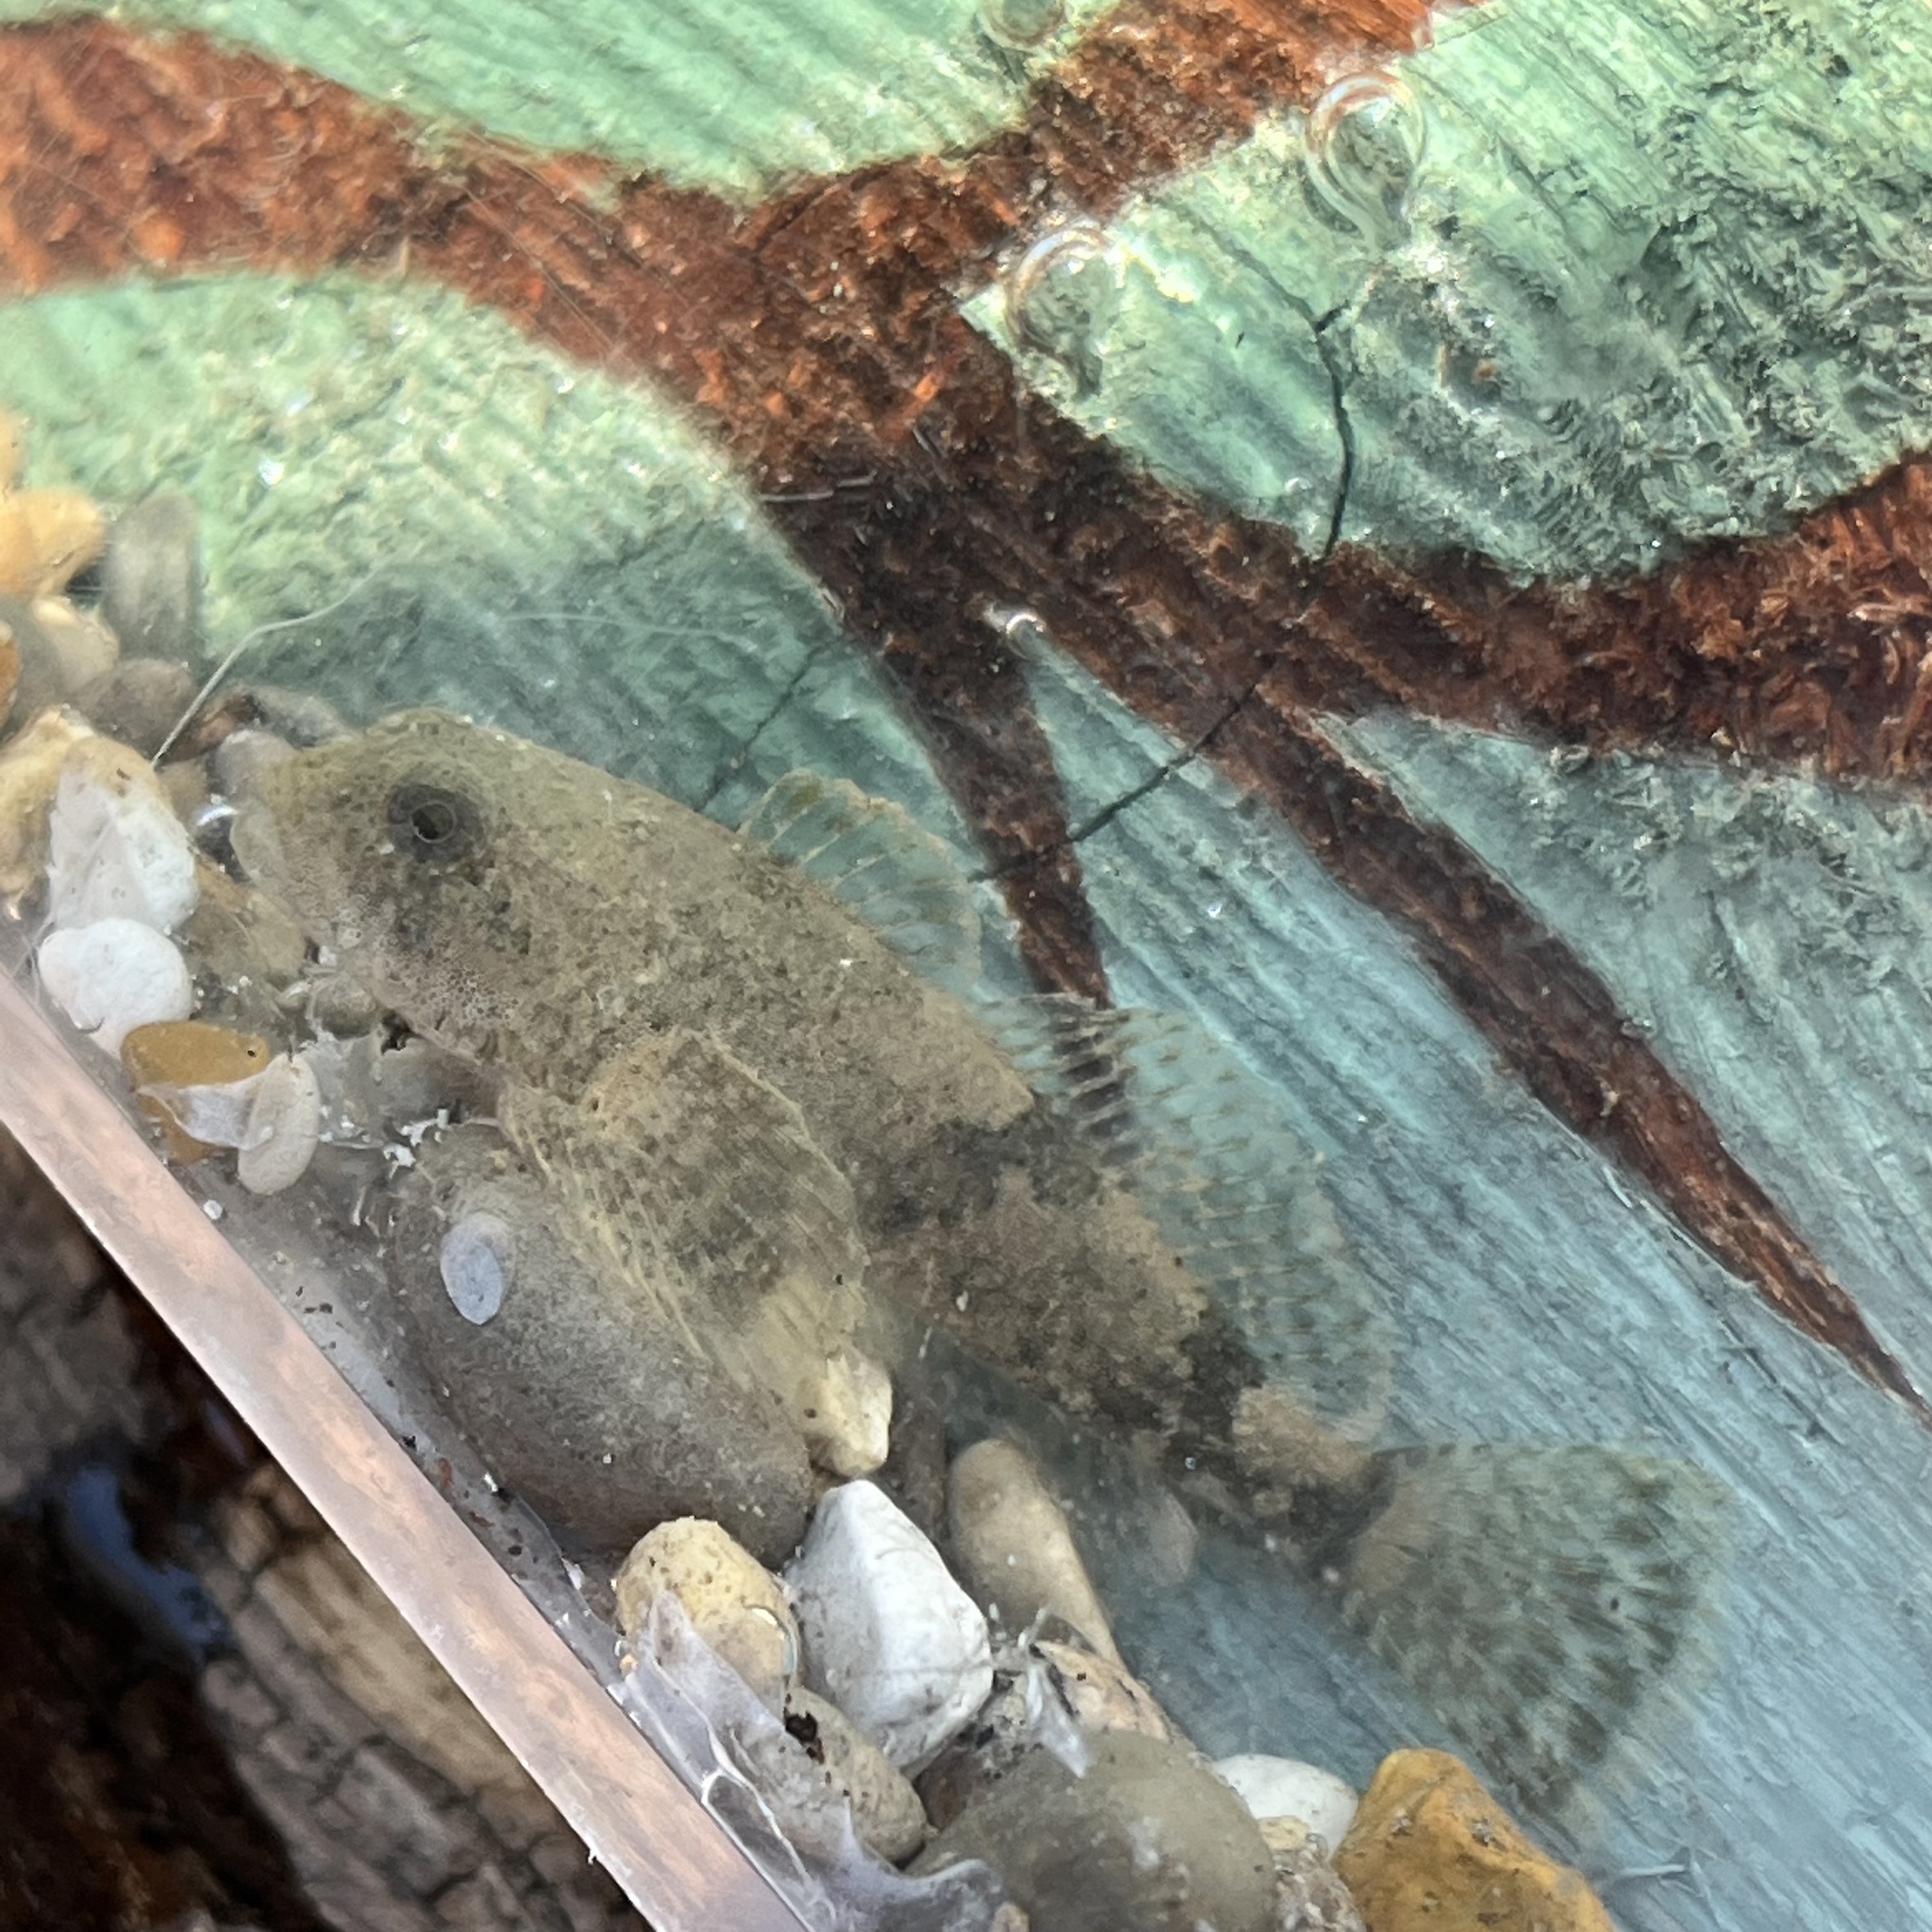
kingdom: Animalia
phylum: Chordata
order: Scorpaeniformes
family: Cottidae
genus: Cottus
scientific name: Cottus bairdii
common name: Mottled sculpin
